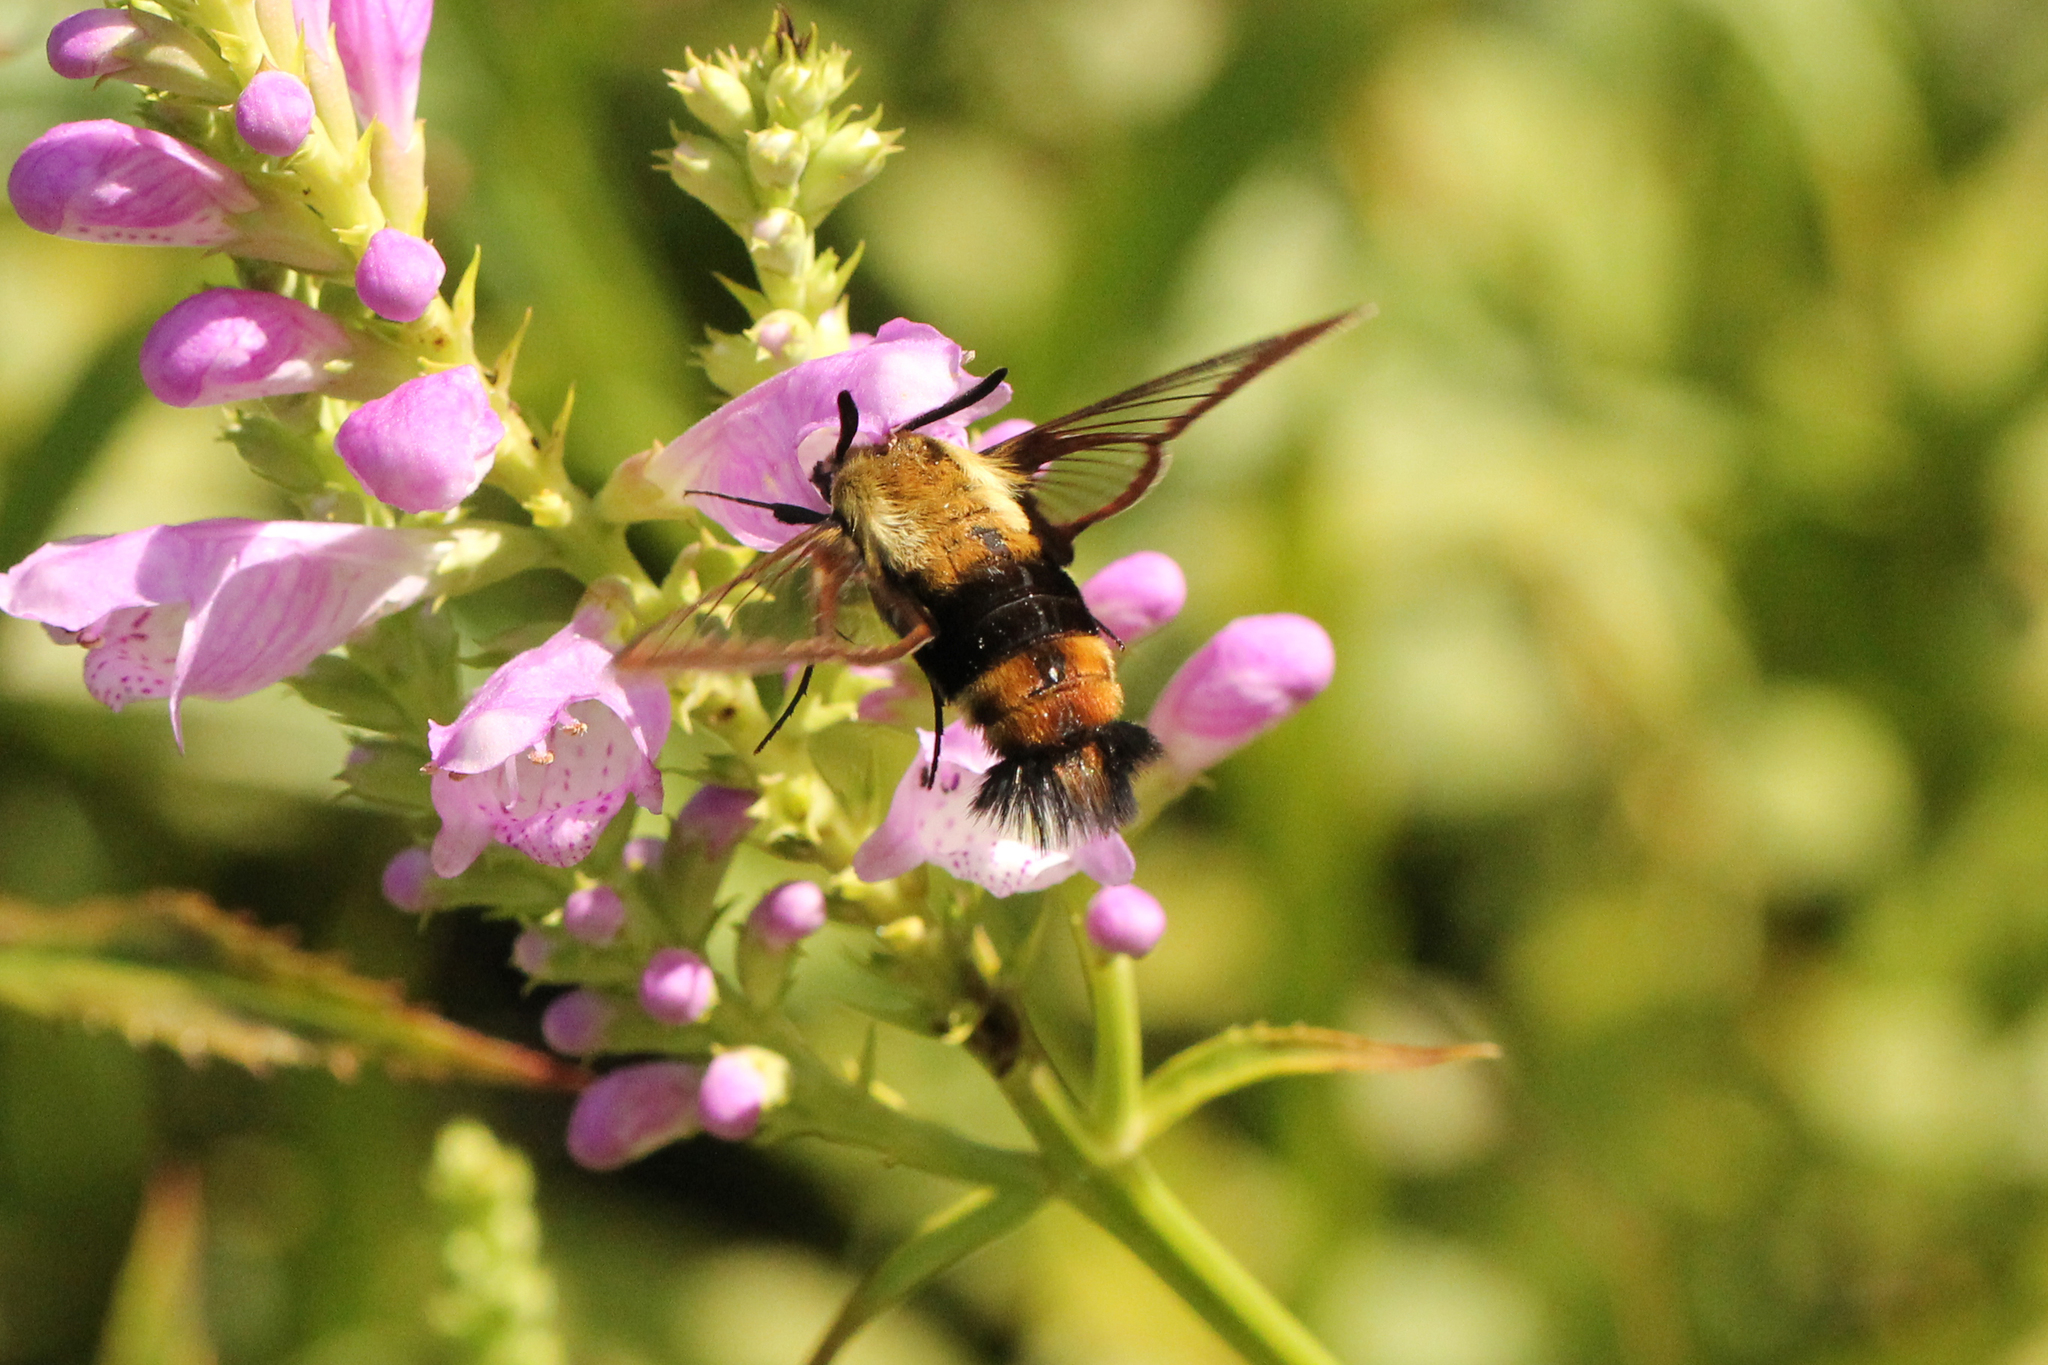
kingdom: Animalia
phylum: Arthropoda
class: Insecta
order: Lepidoptera
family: Sphingidae
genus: Hemaris
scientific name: Hemaris diffinis
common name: Bumblebee moth
